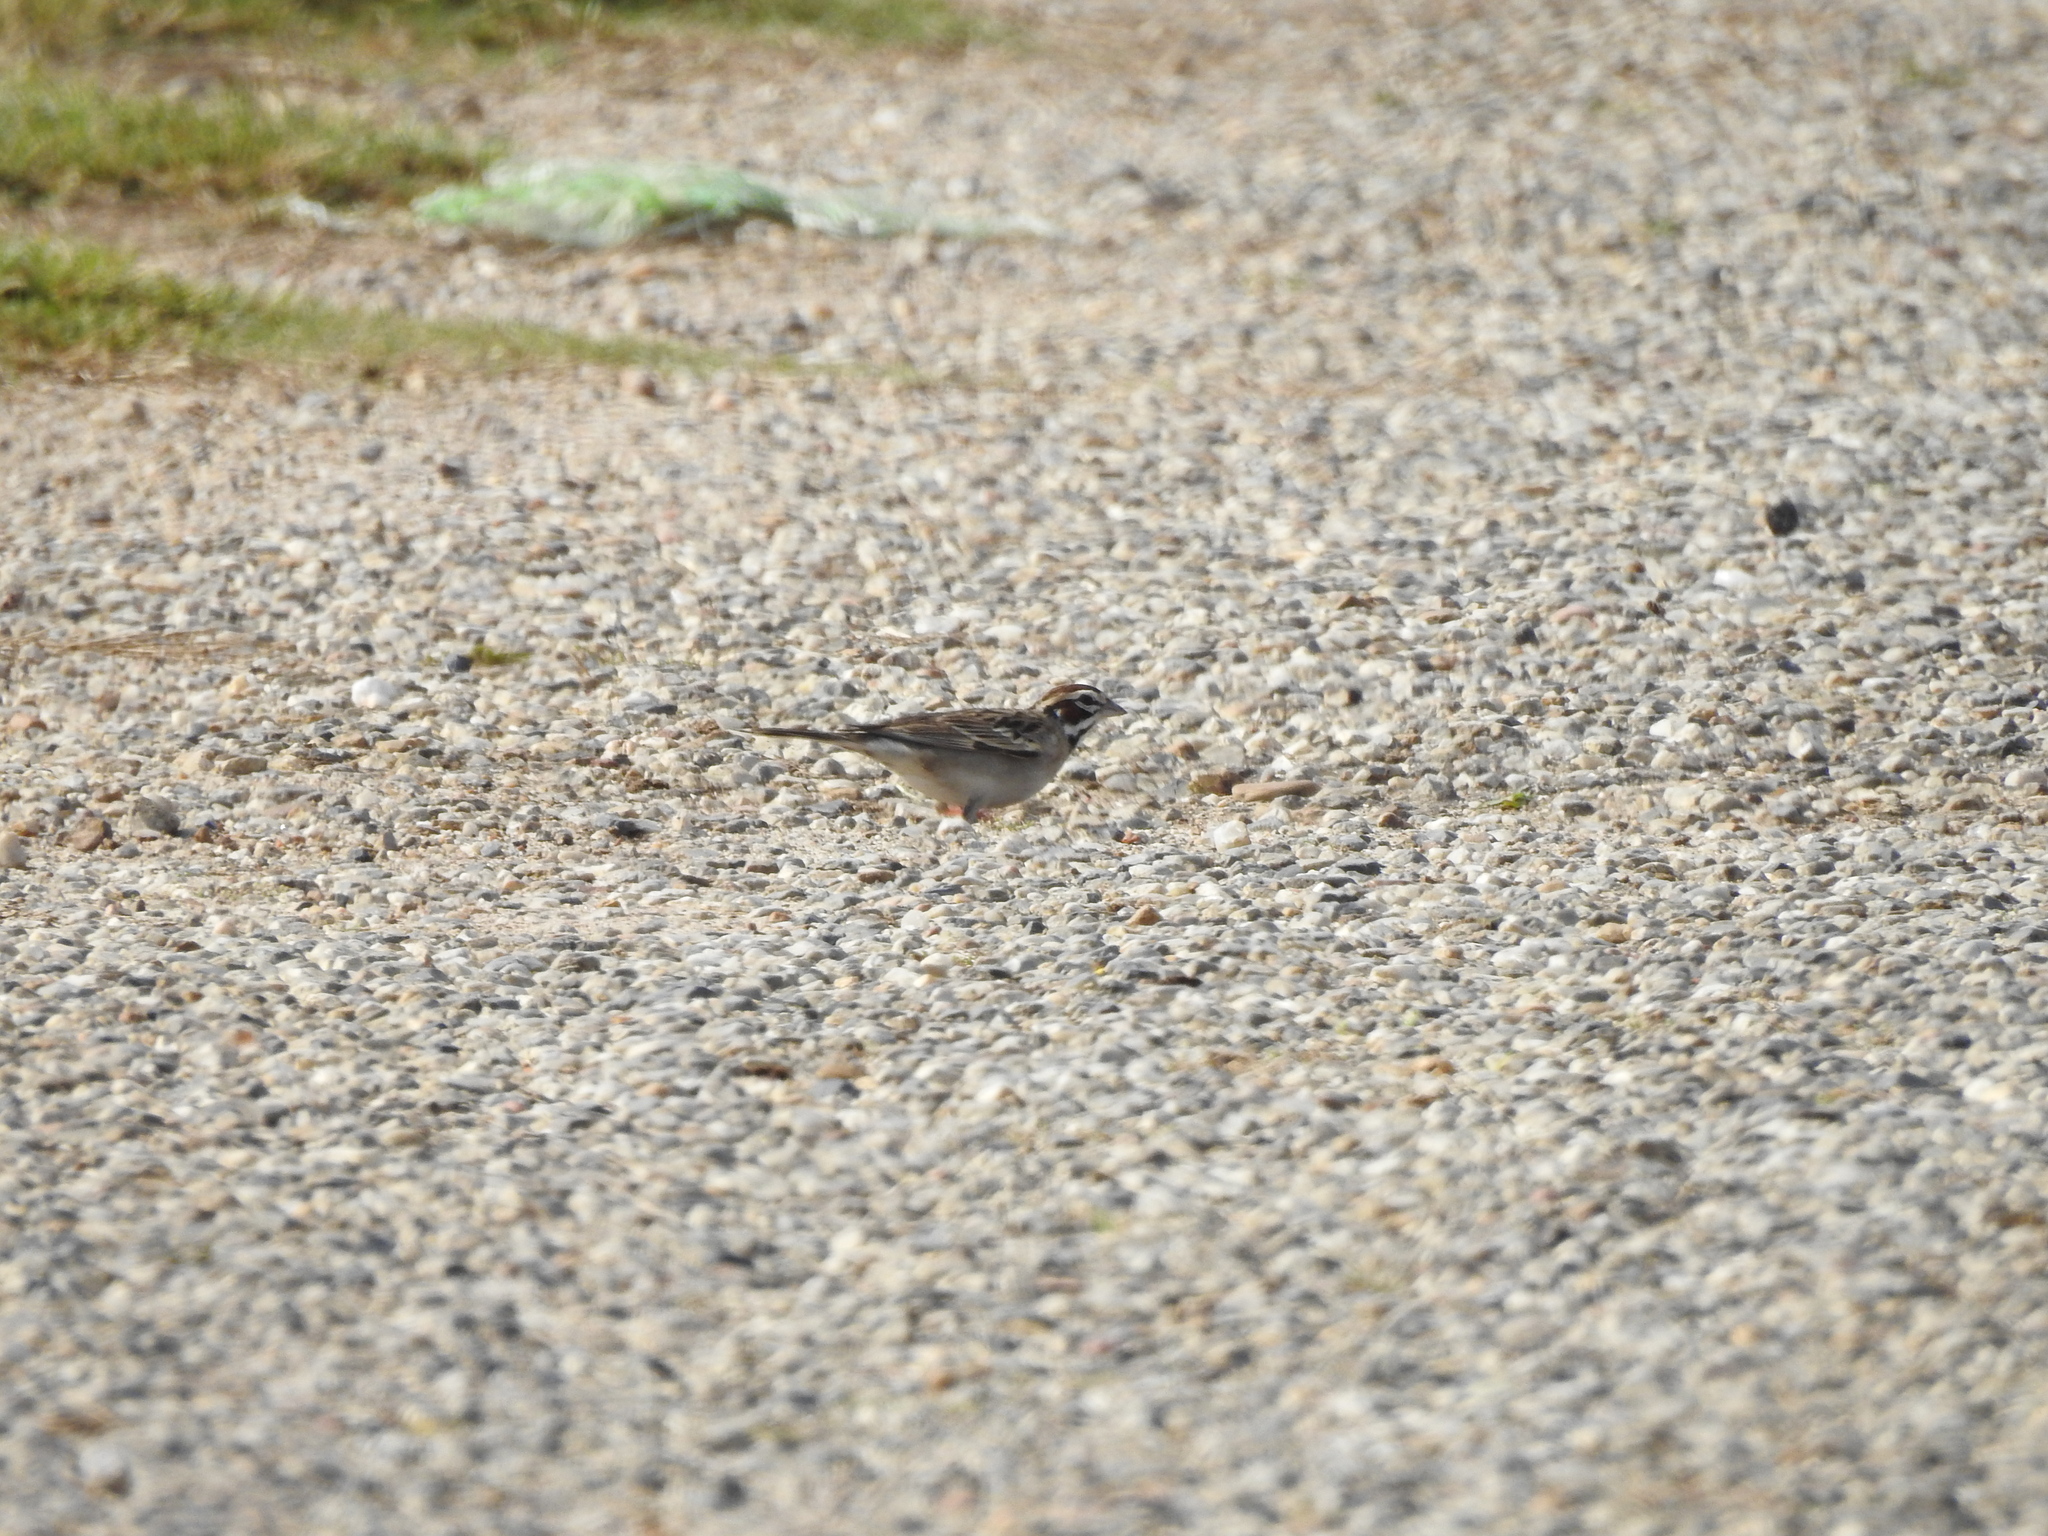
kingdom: Animalia
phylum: Chordata
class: Aves
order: Passeriformes
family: Passerellidae
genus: Chondestes
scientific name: Chondestes grammacus
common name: Lark sparrow
